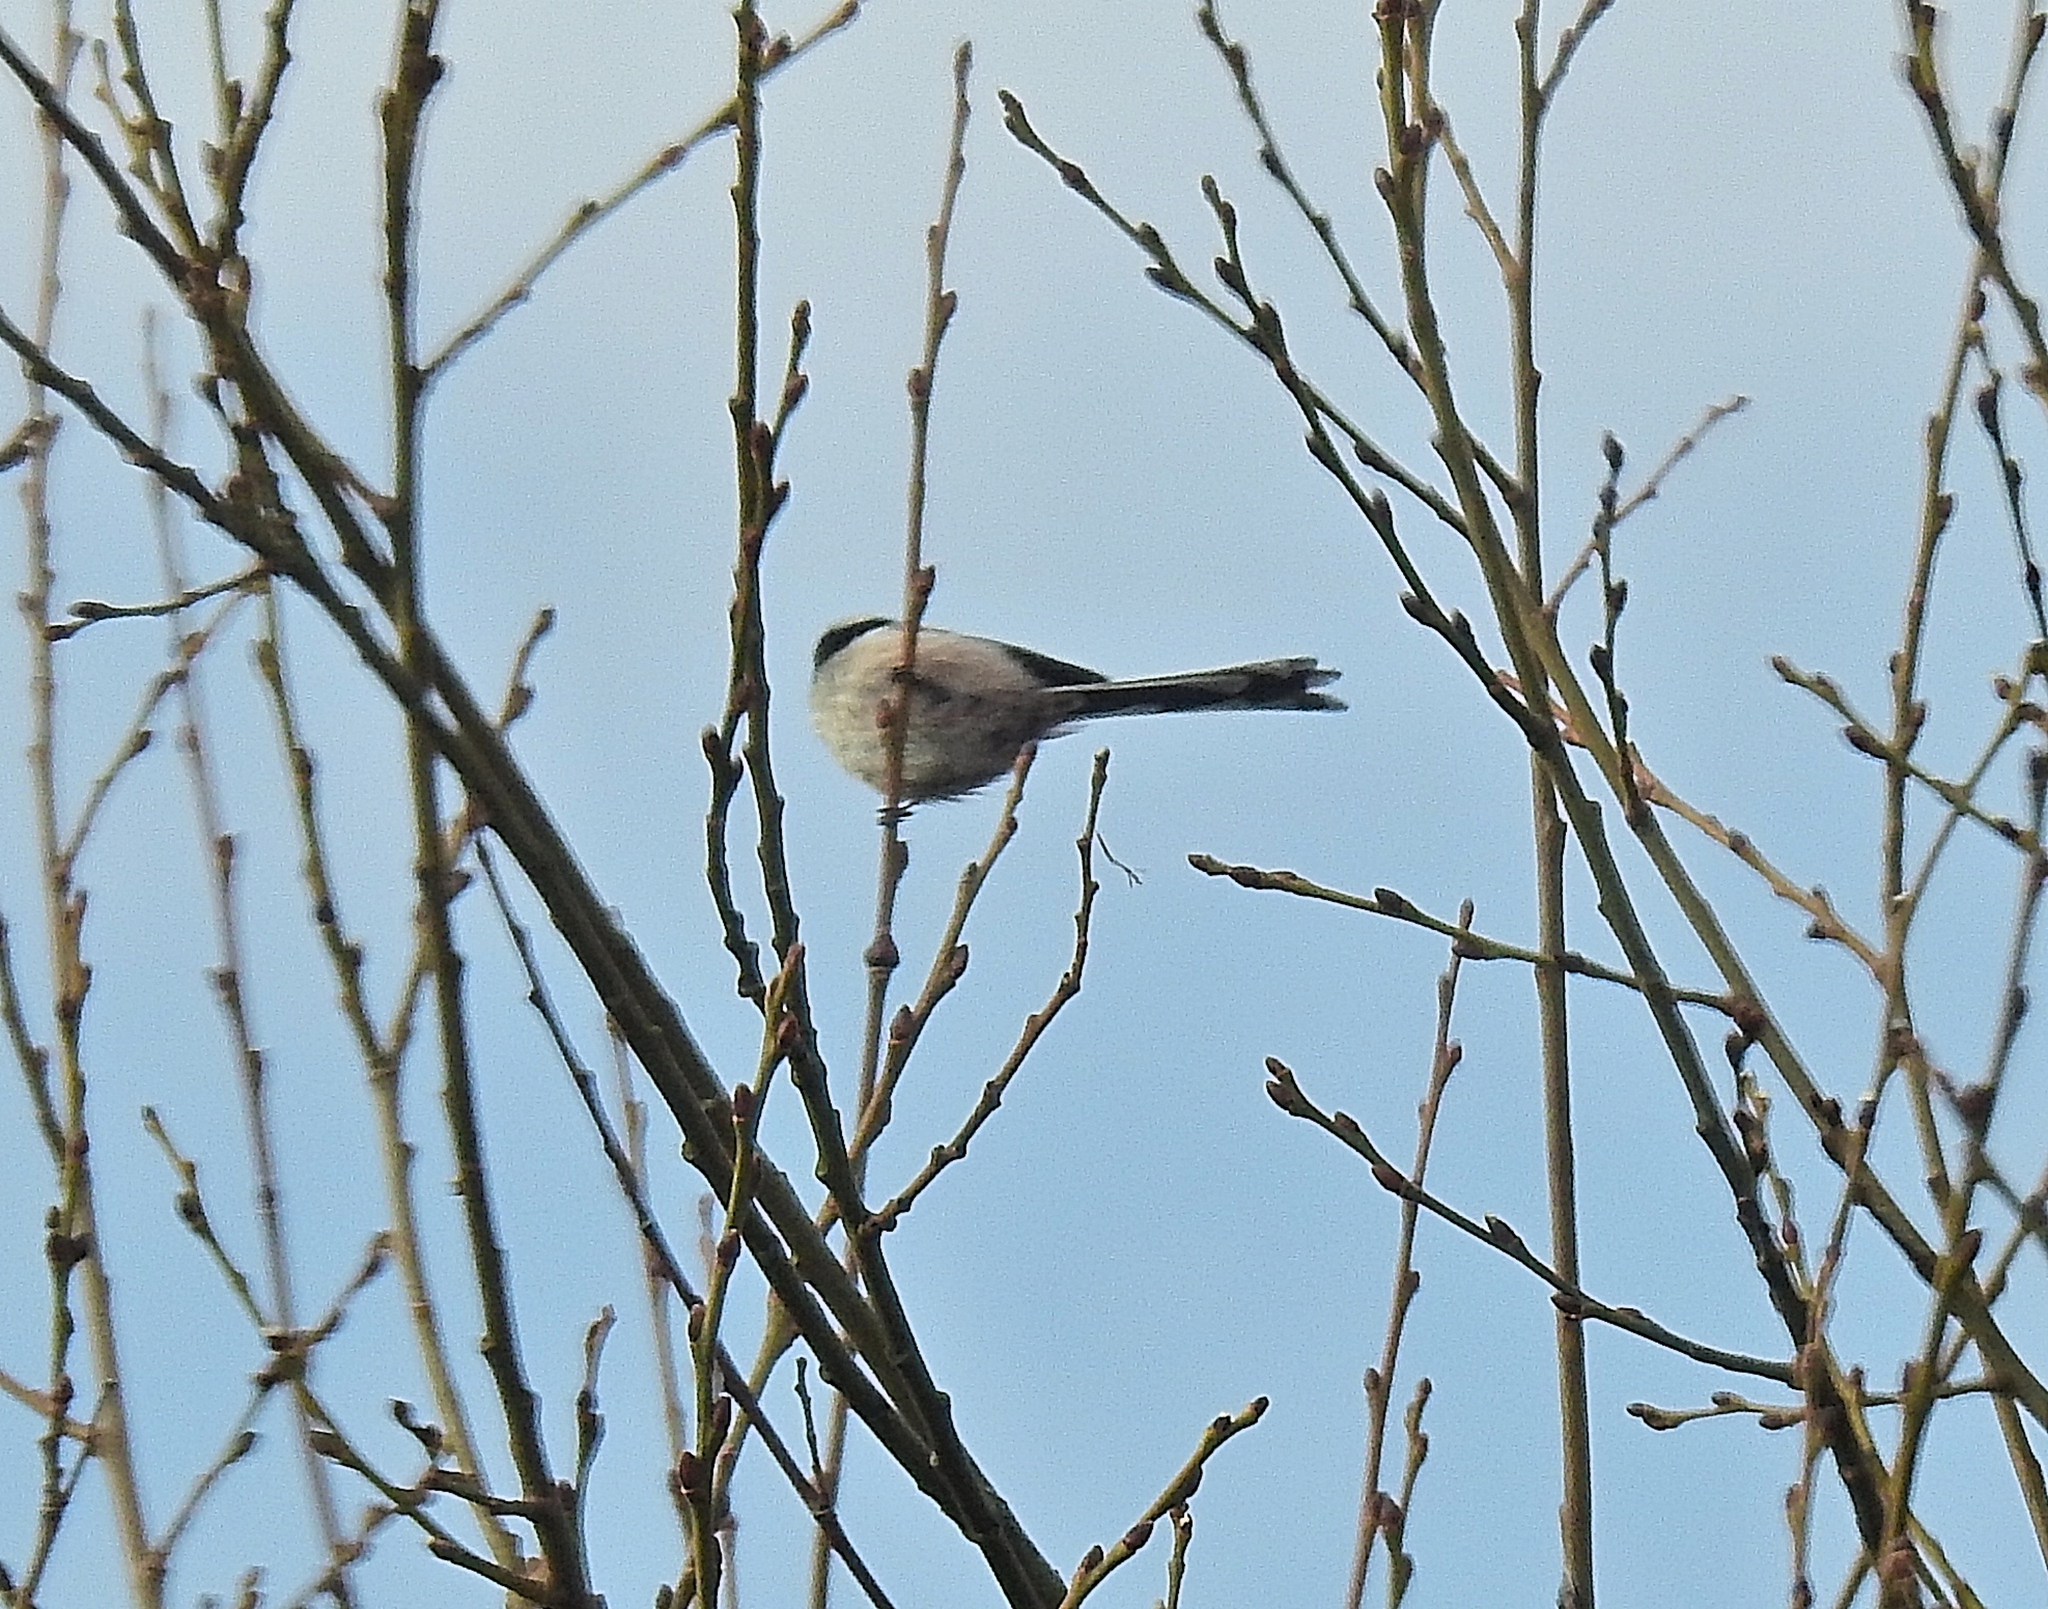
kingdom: Animalia
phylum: Chordata
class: Aves
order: Passeriformes
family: Aegithalidae
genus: Aegithalos
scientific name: Aegithalos caudatus
